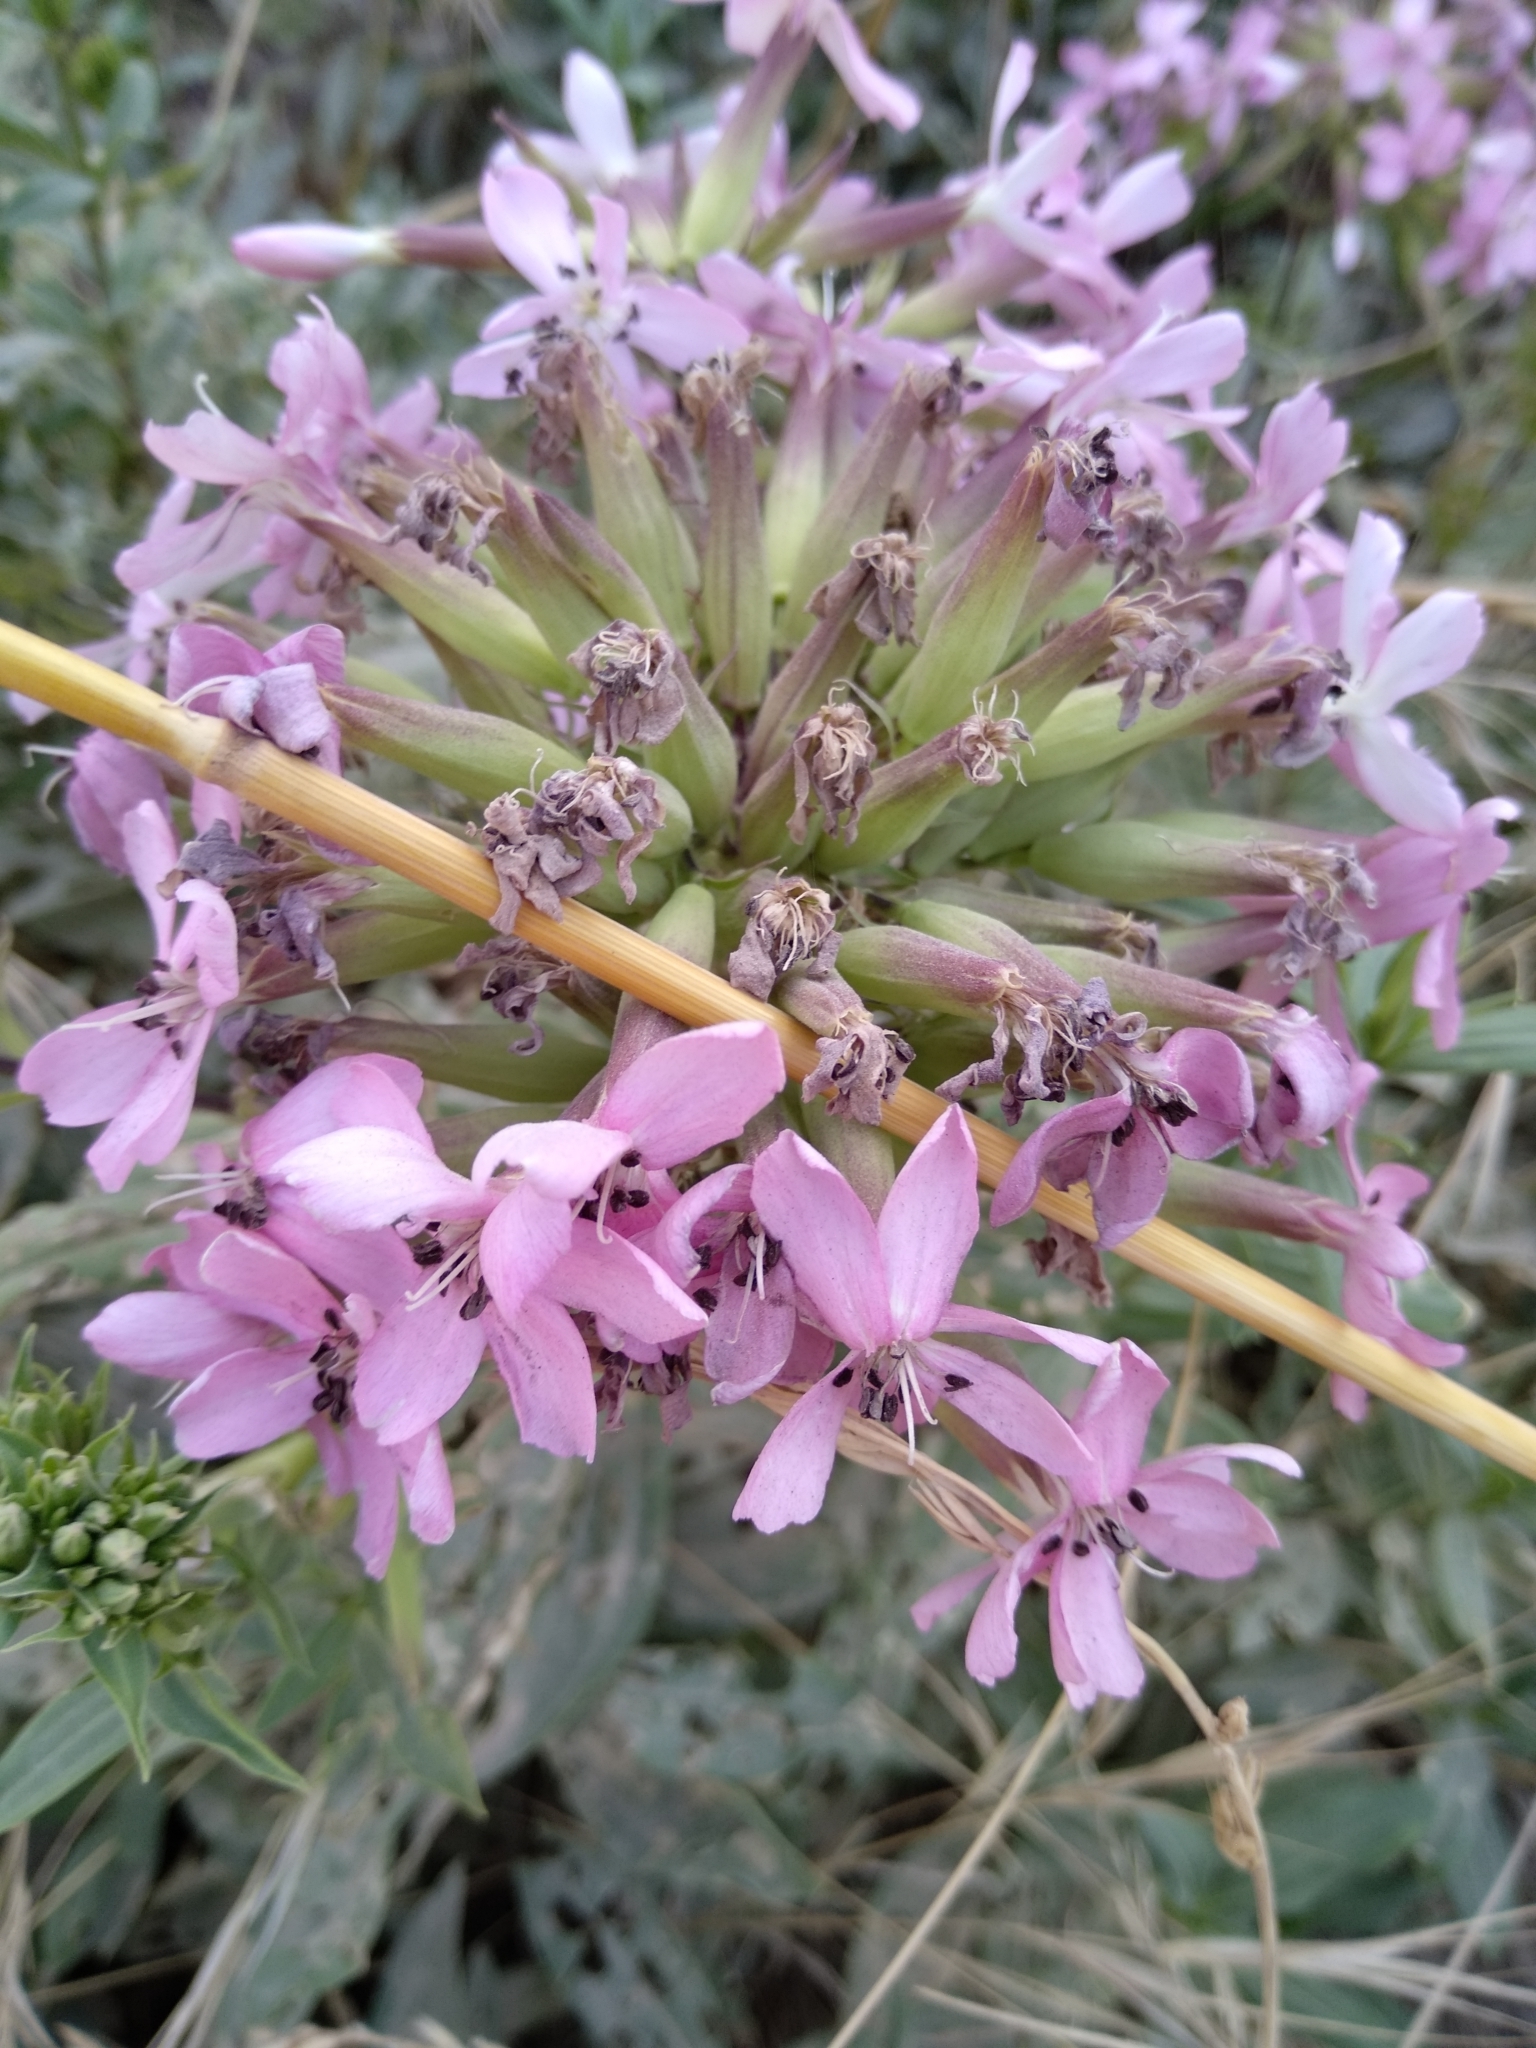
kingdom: Plantae
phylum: Tracheophyta
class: Magnoliopsida
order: Caryophyllales
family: Caryophyllaceae
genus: Saponaria
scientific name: Saponaria officinalis
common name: Soapwort
